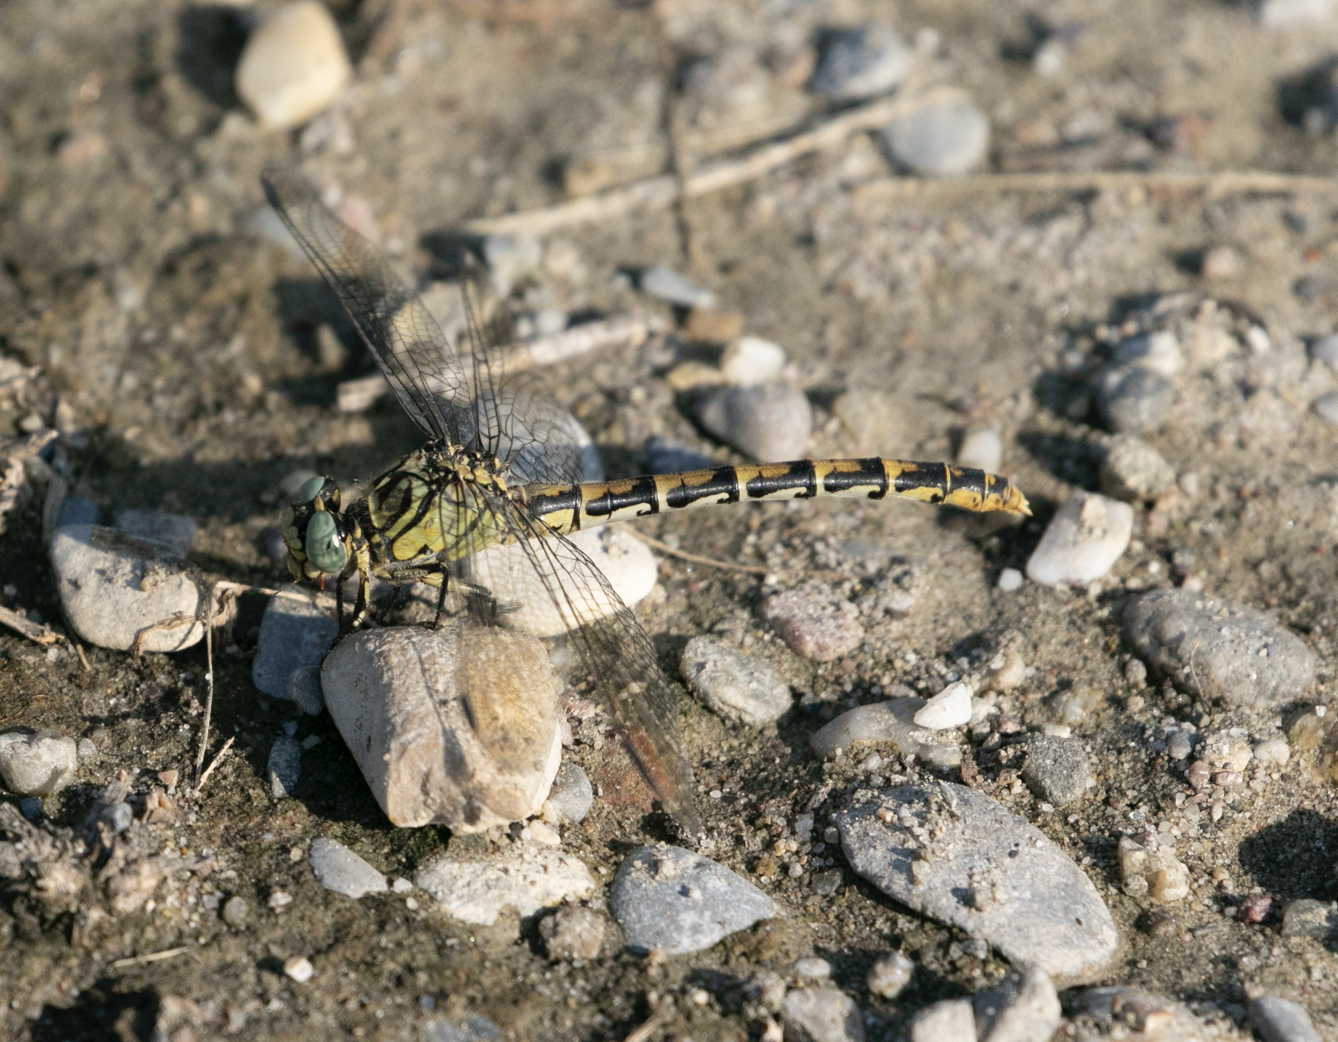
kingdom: Animalia
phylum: Arthropoda
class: Insecta
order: Odonata
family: Gomphidae
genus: Onychogomphus
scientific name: Onychogomphus forcipatus
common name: Small pincertail
